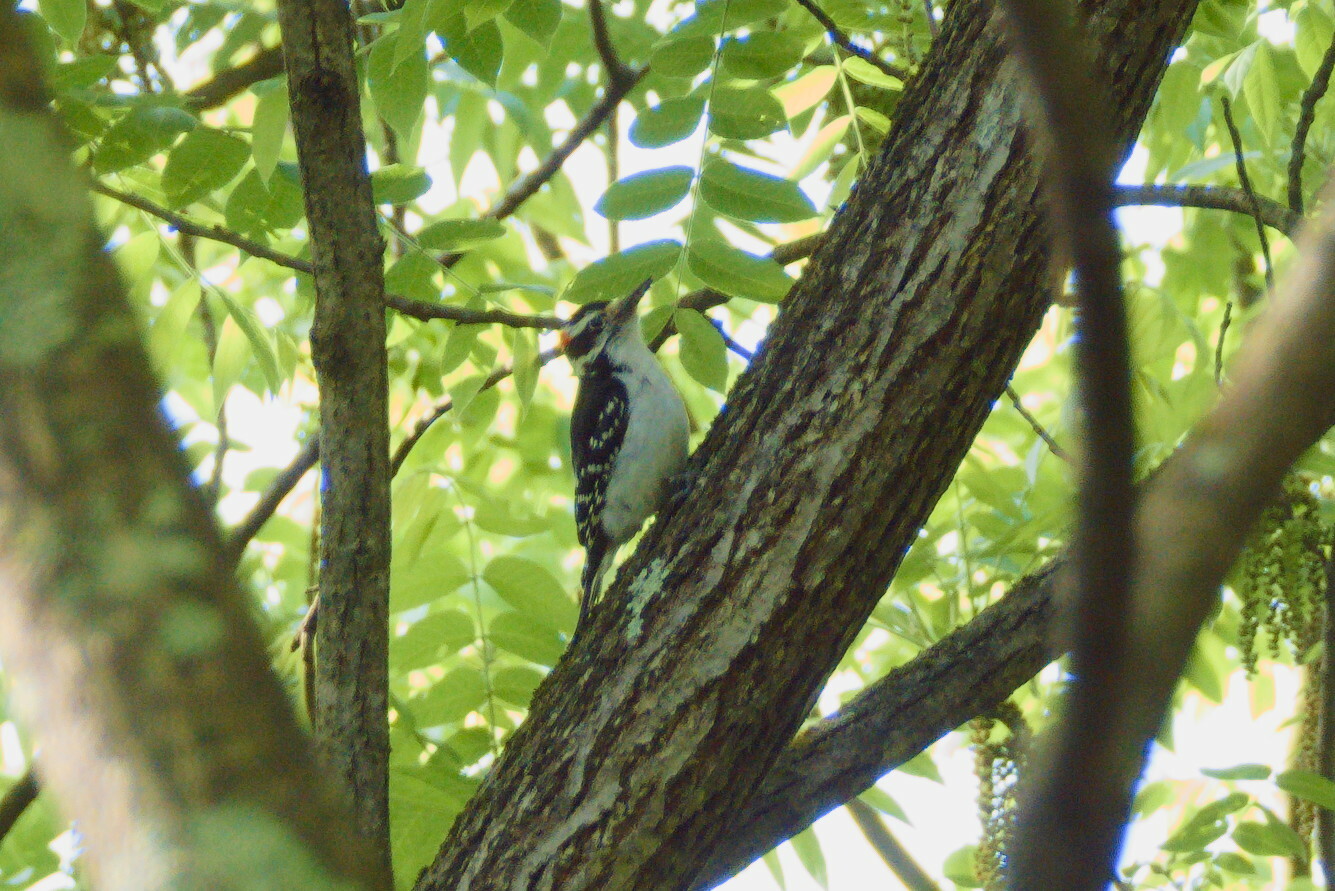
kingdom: Animalia
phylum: Chordata
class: Aves
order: Piciformes
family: Picidae
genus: Leuconotopicus
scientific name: Leuconotopicus villosus
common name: Hairy woodpecker
